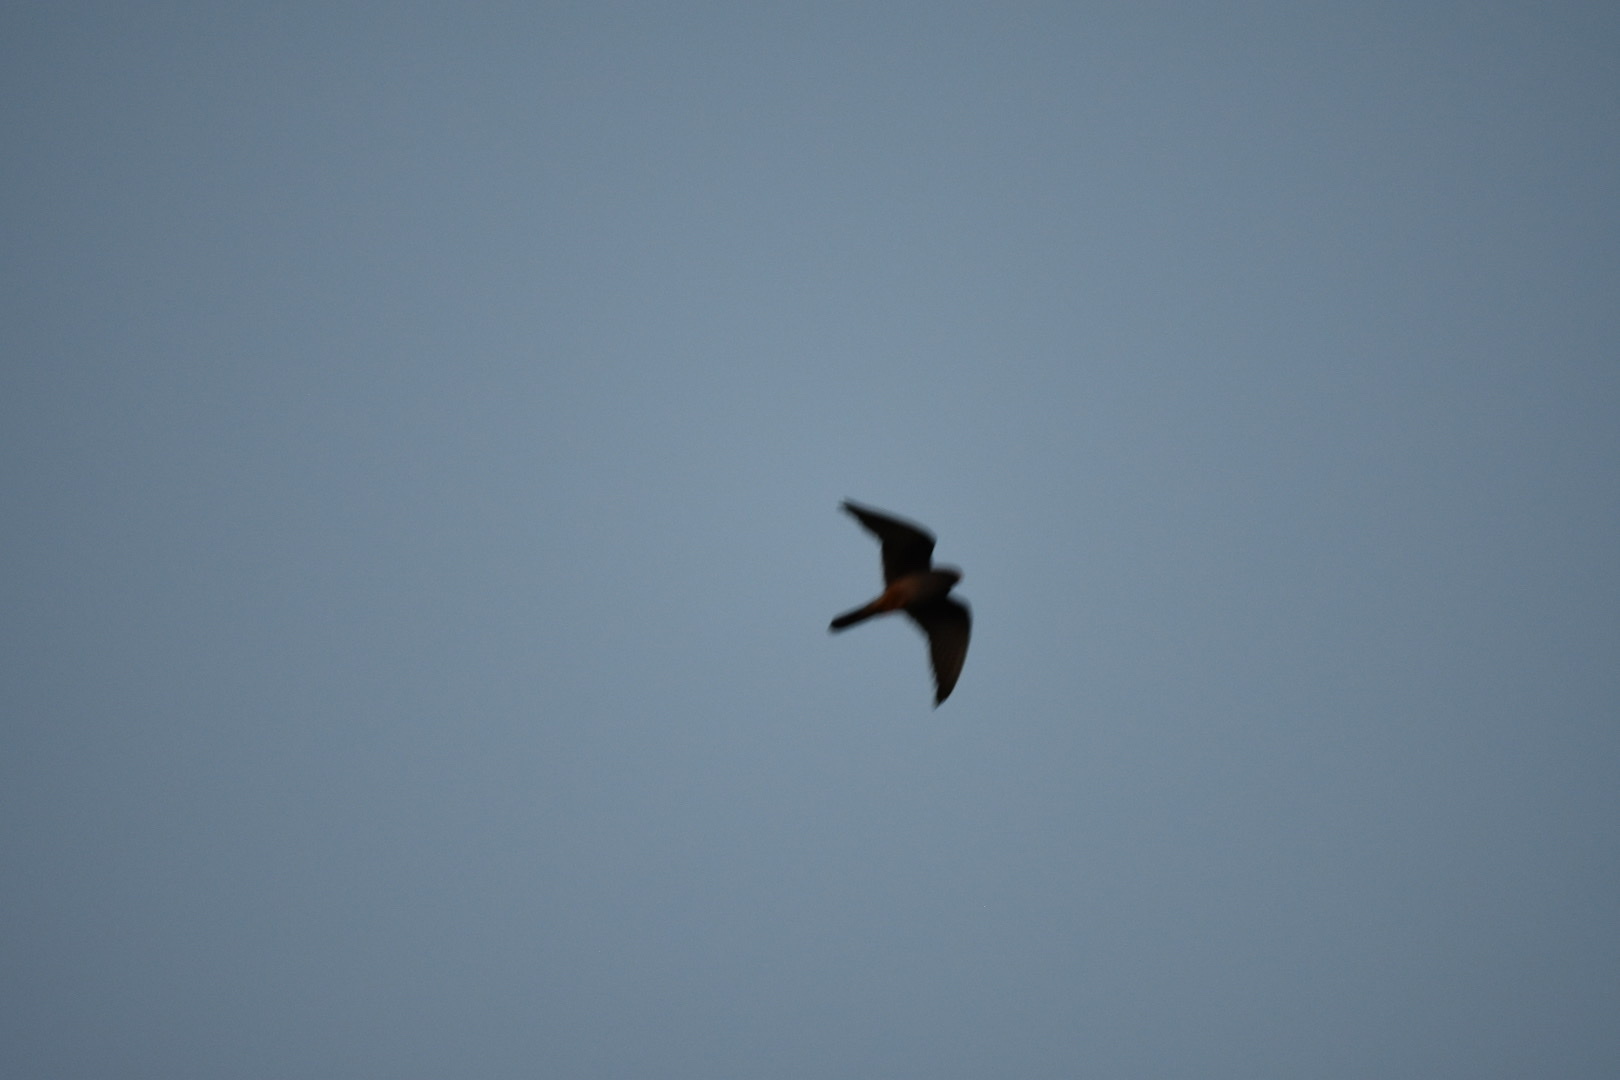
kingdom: Animalia
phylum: Chordata
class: Aves
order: Falconiformes
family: Falconidae
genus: Falco
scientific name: Falco vespertinus
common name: Red-footed falcon
